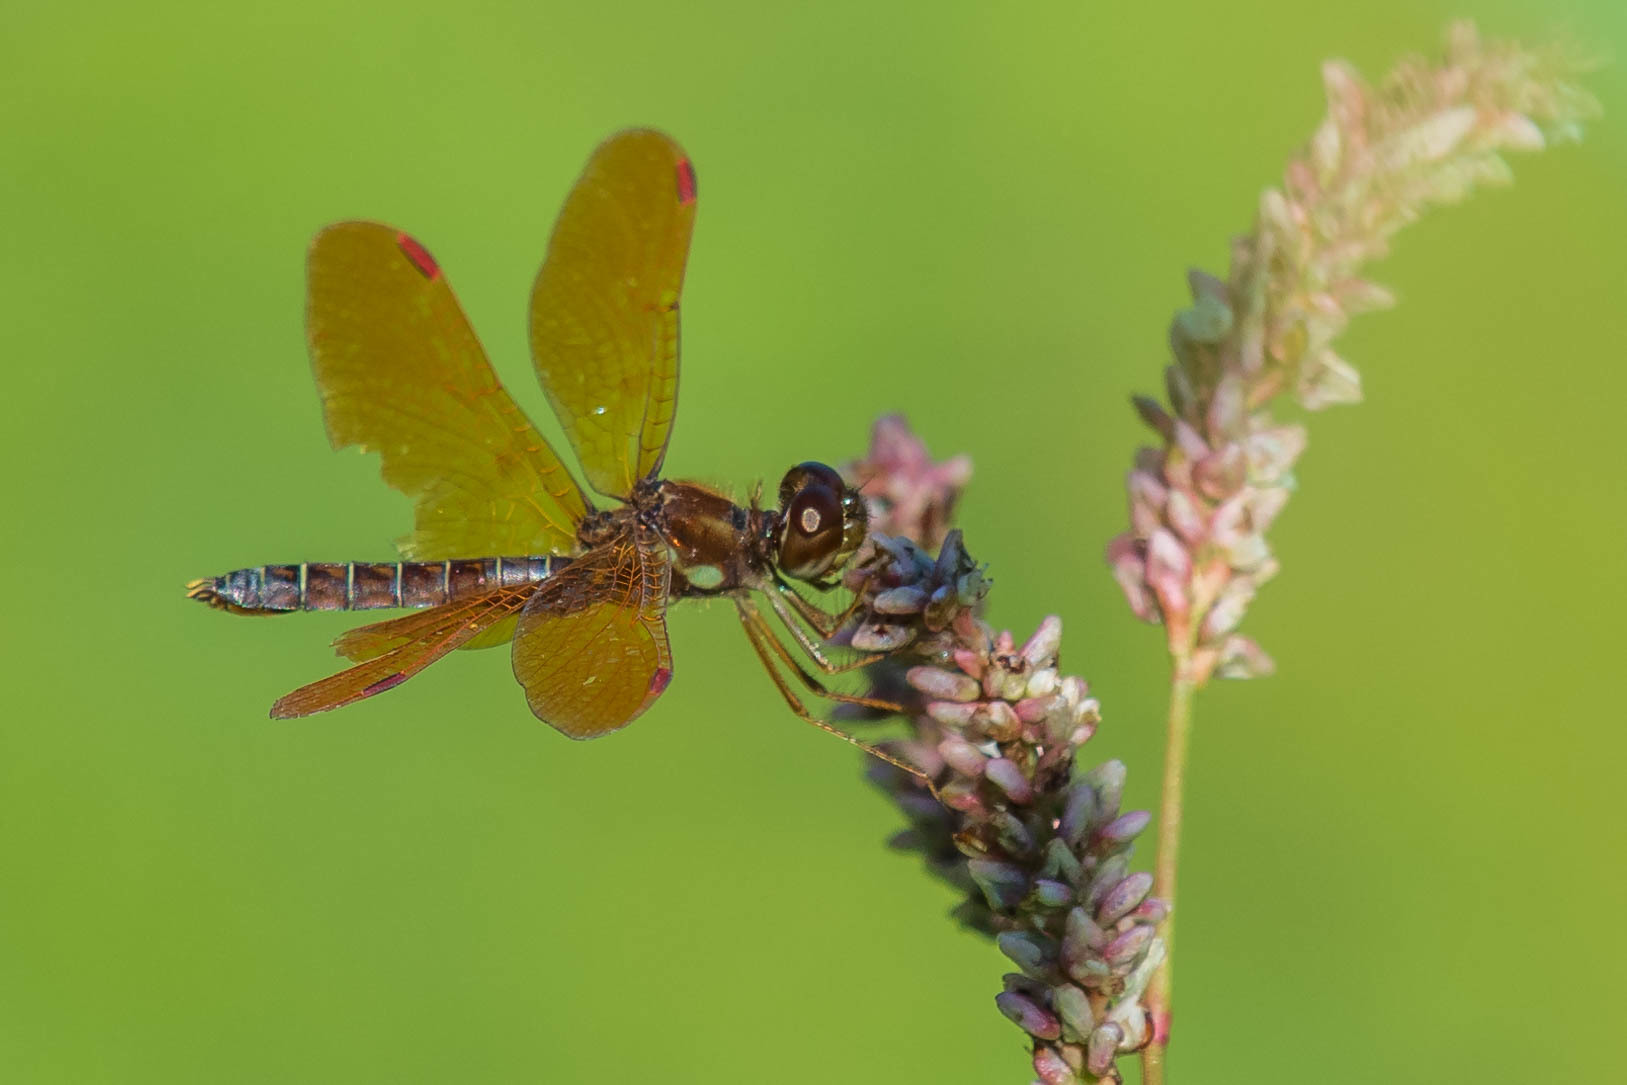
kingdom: Animalia
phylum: Arthropoda
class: Insecta
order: Odonata
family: Libellulidae
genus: Perithemis
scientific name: Perithemis tenera
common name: Eastern amberwing
